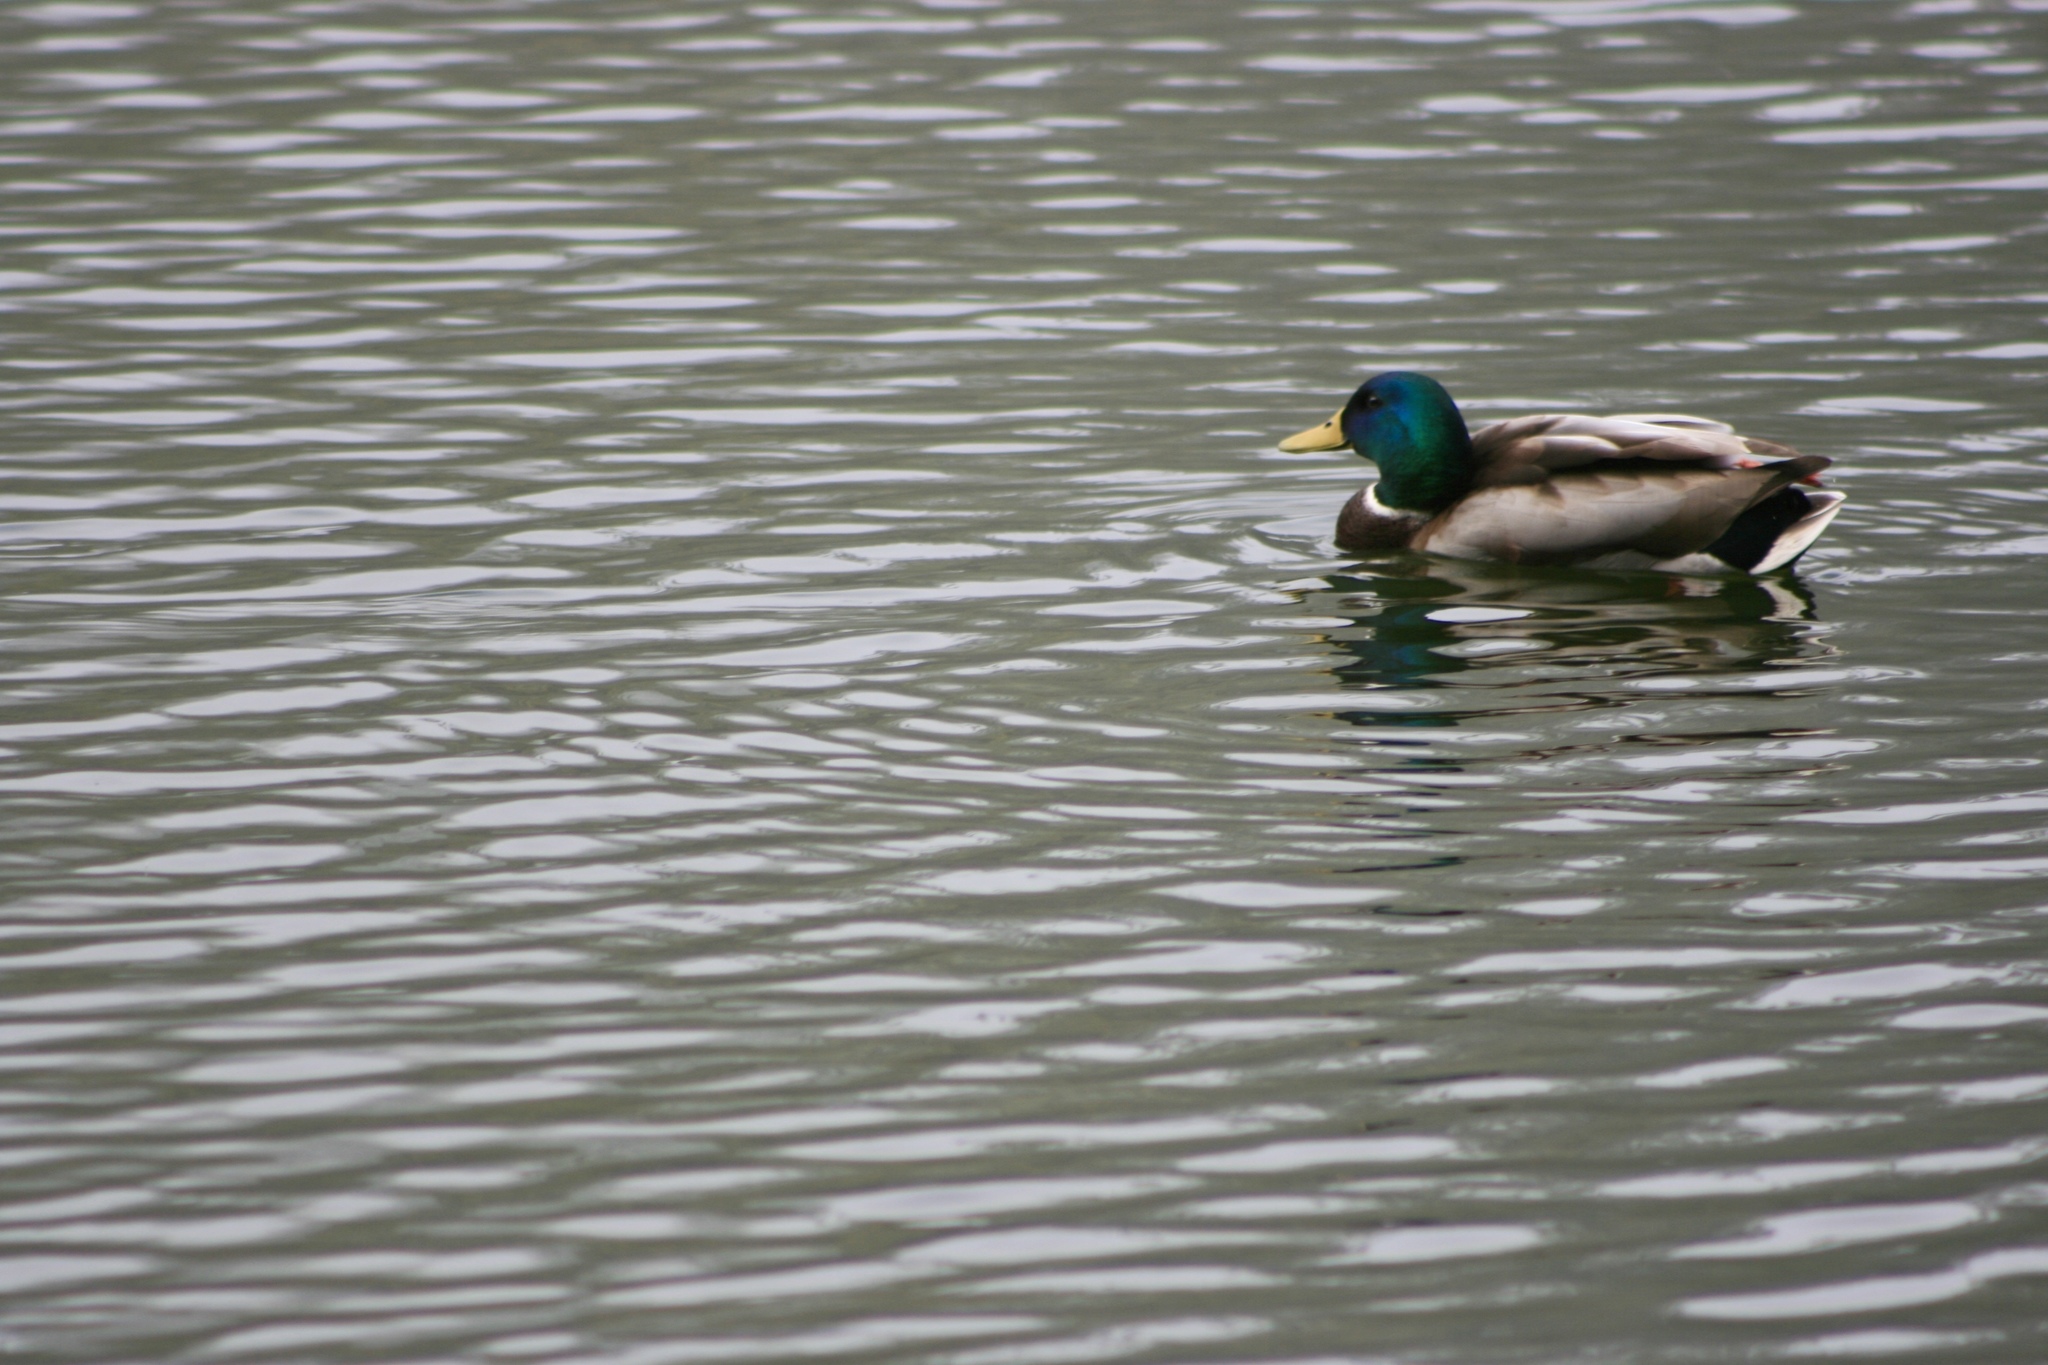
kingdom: Animalia
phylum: Chordata
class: Aves
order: Anseriformes
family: Anatidae
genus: Anas
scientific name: Anas platyrhynchos
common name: Mallard
